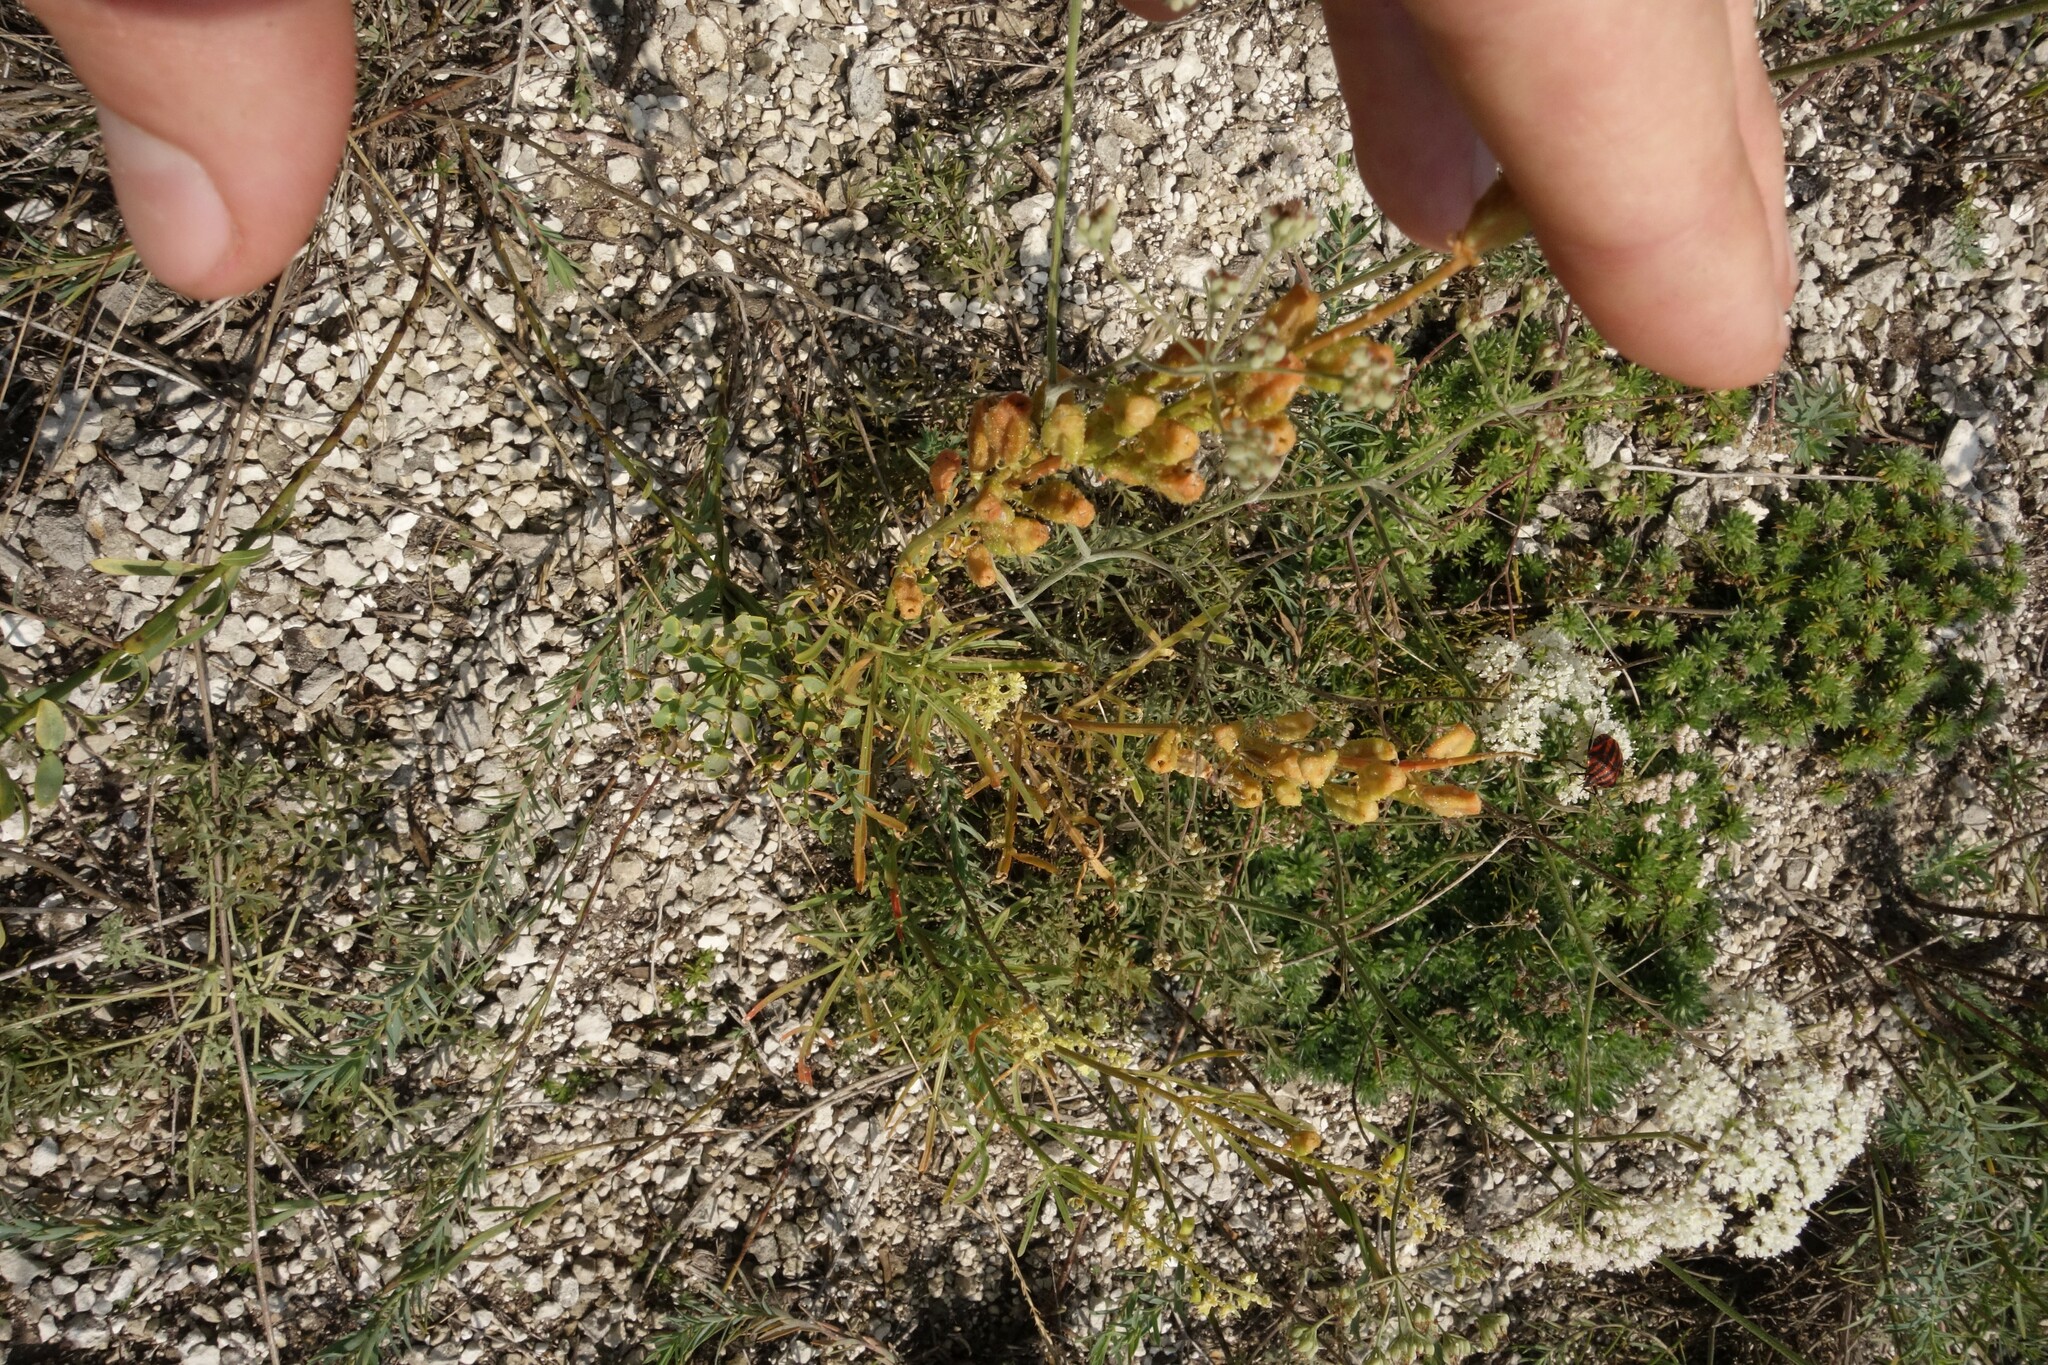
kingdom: Plantae
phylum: Tracheophyta
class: Magnoliopsida
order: Brassicales
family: Resedaceae
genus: Reseda
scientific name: Reseda lutea
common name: Wild mignonette
